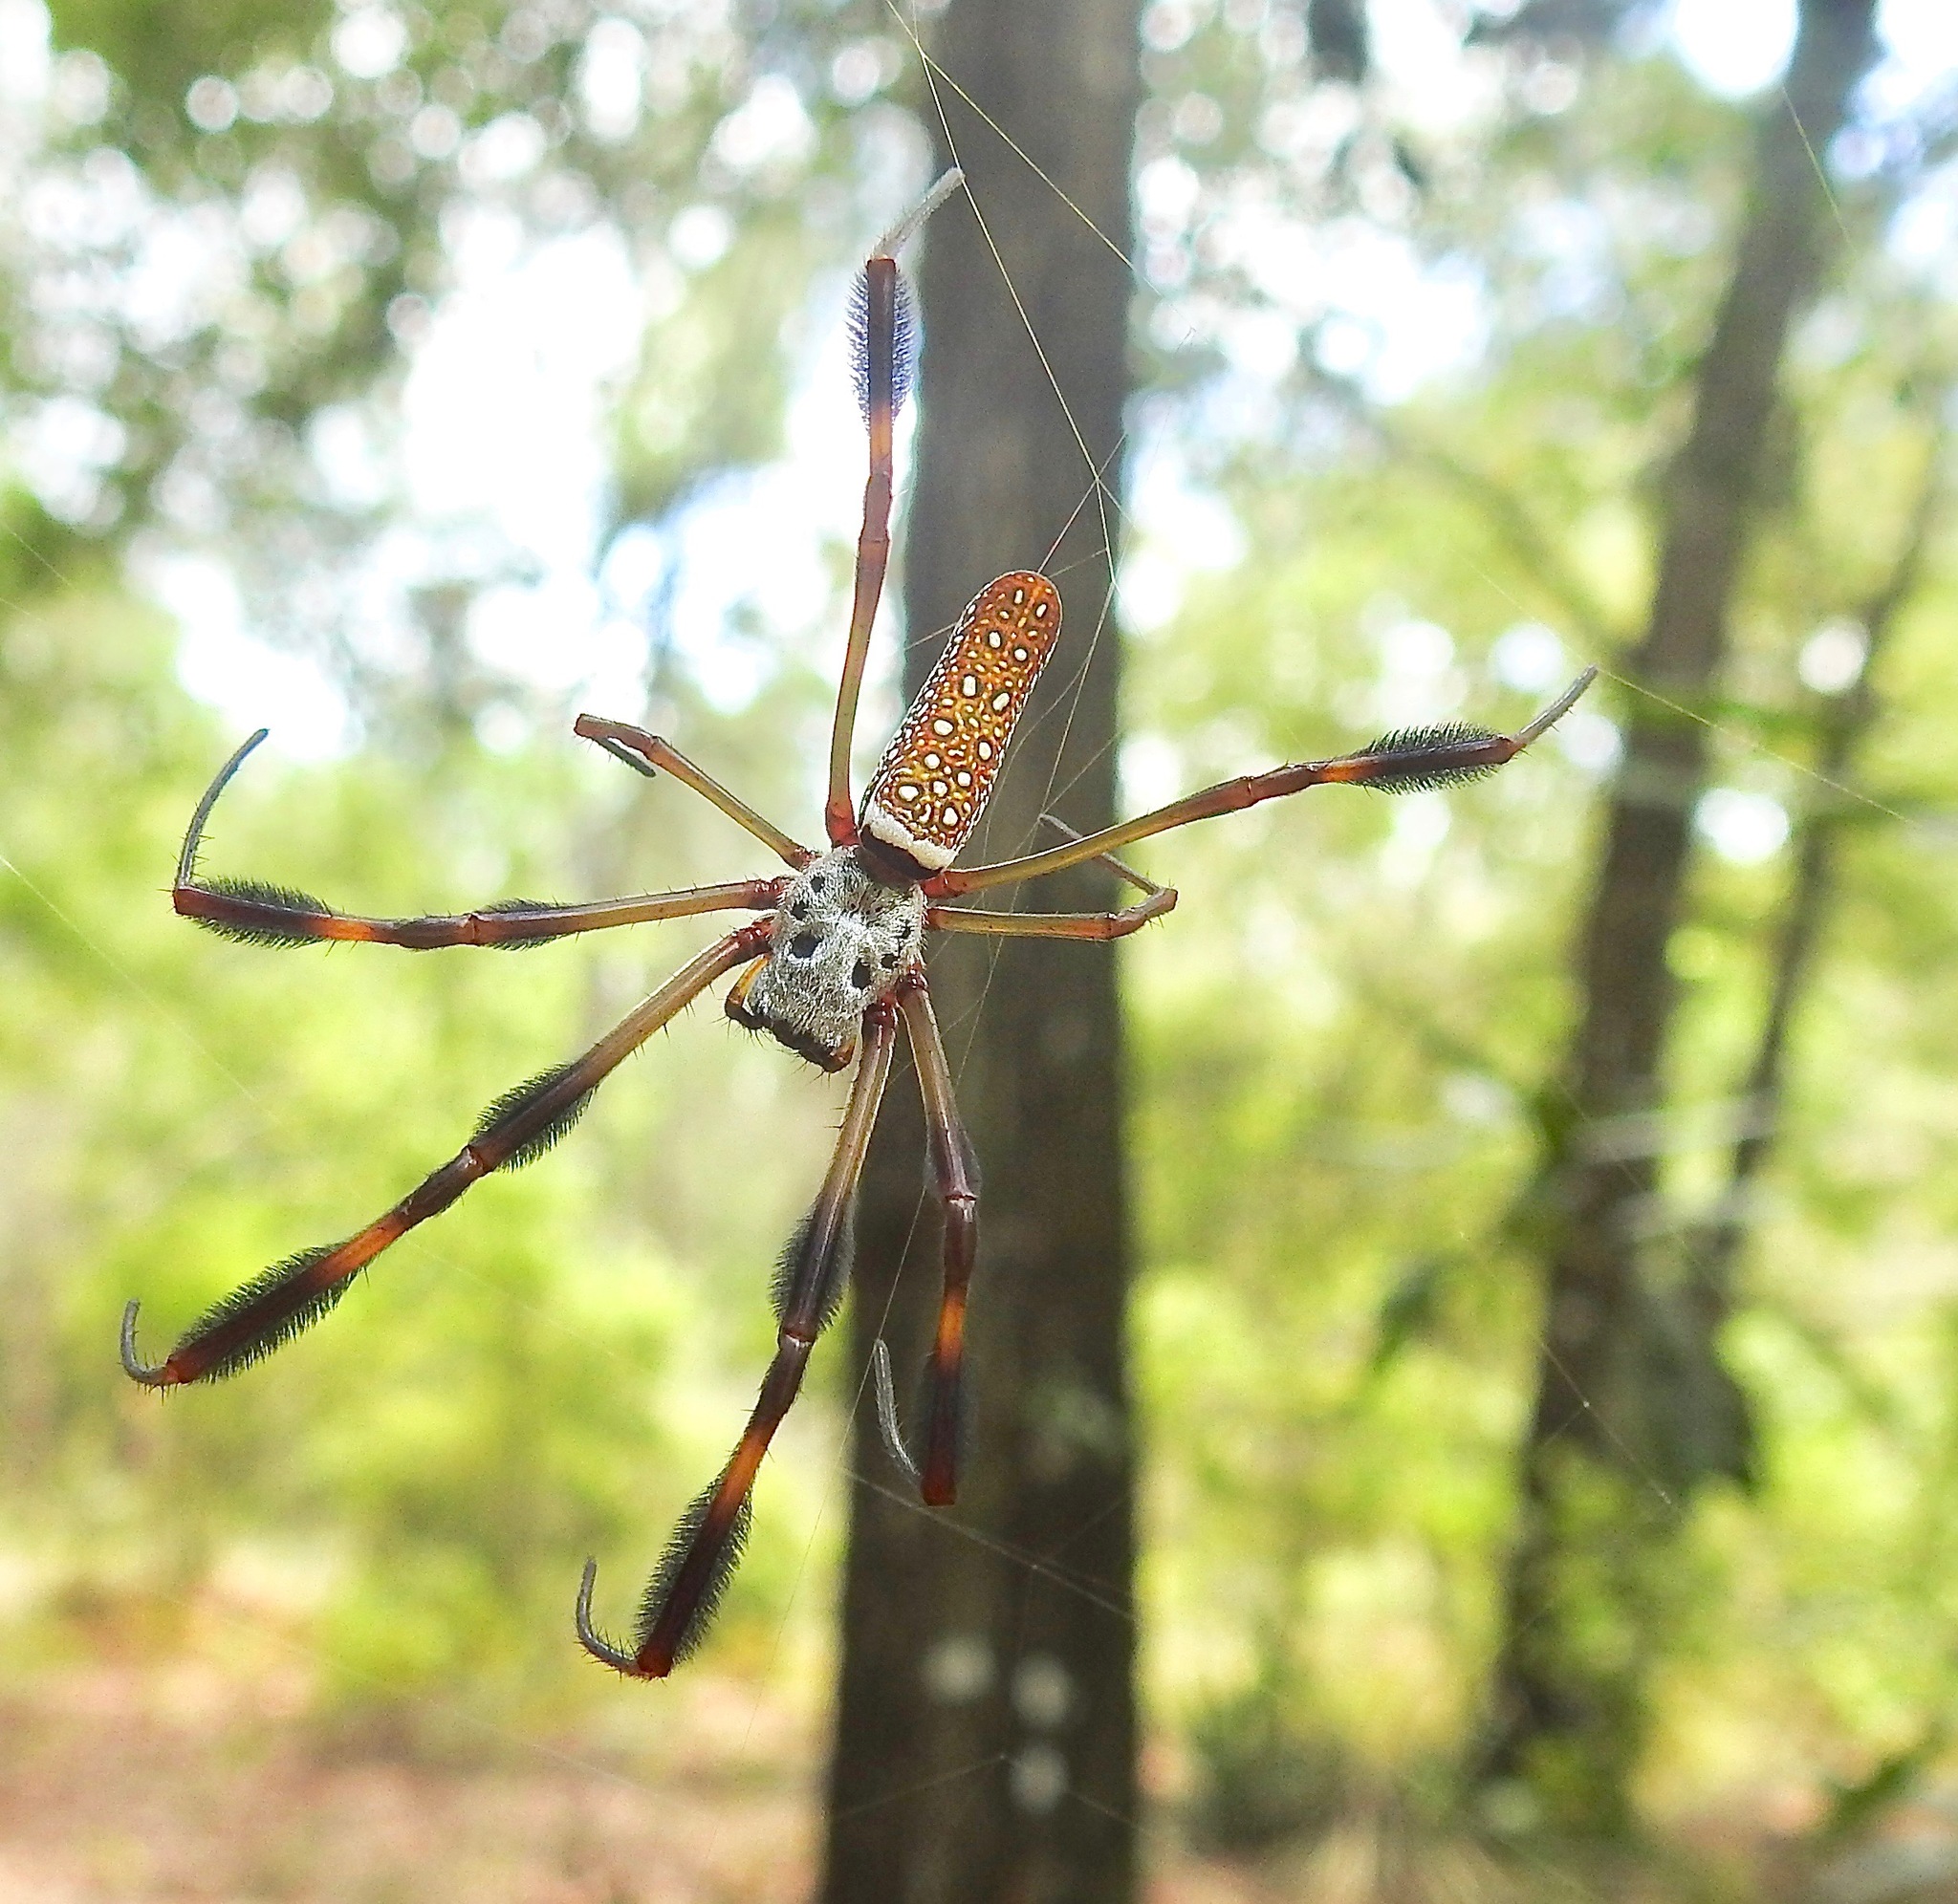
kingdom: Animalia
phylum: Arthropoda
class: Arachnida
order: Araneae
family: Araneidae
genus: Trichonephila
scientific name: Trichonephila clavipes
